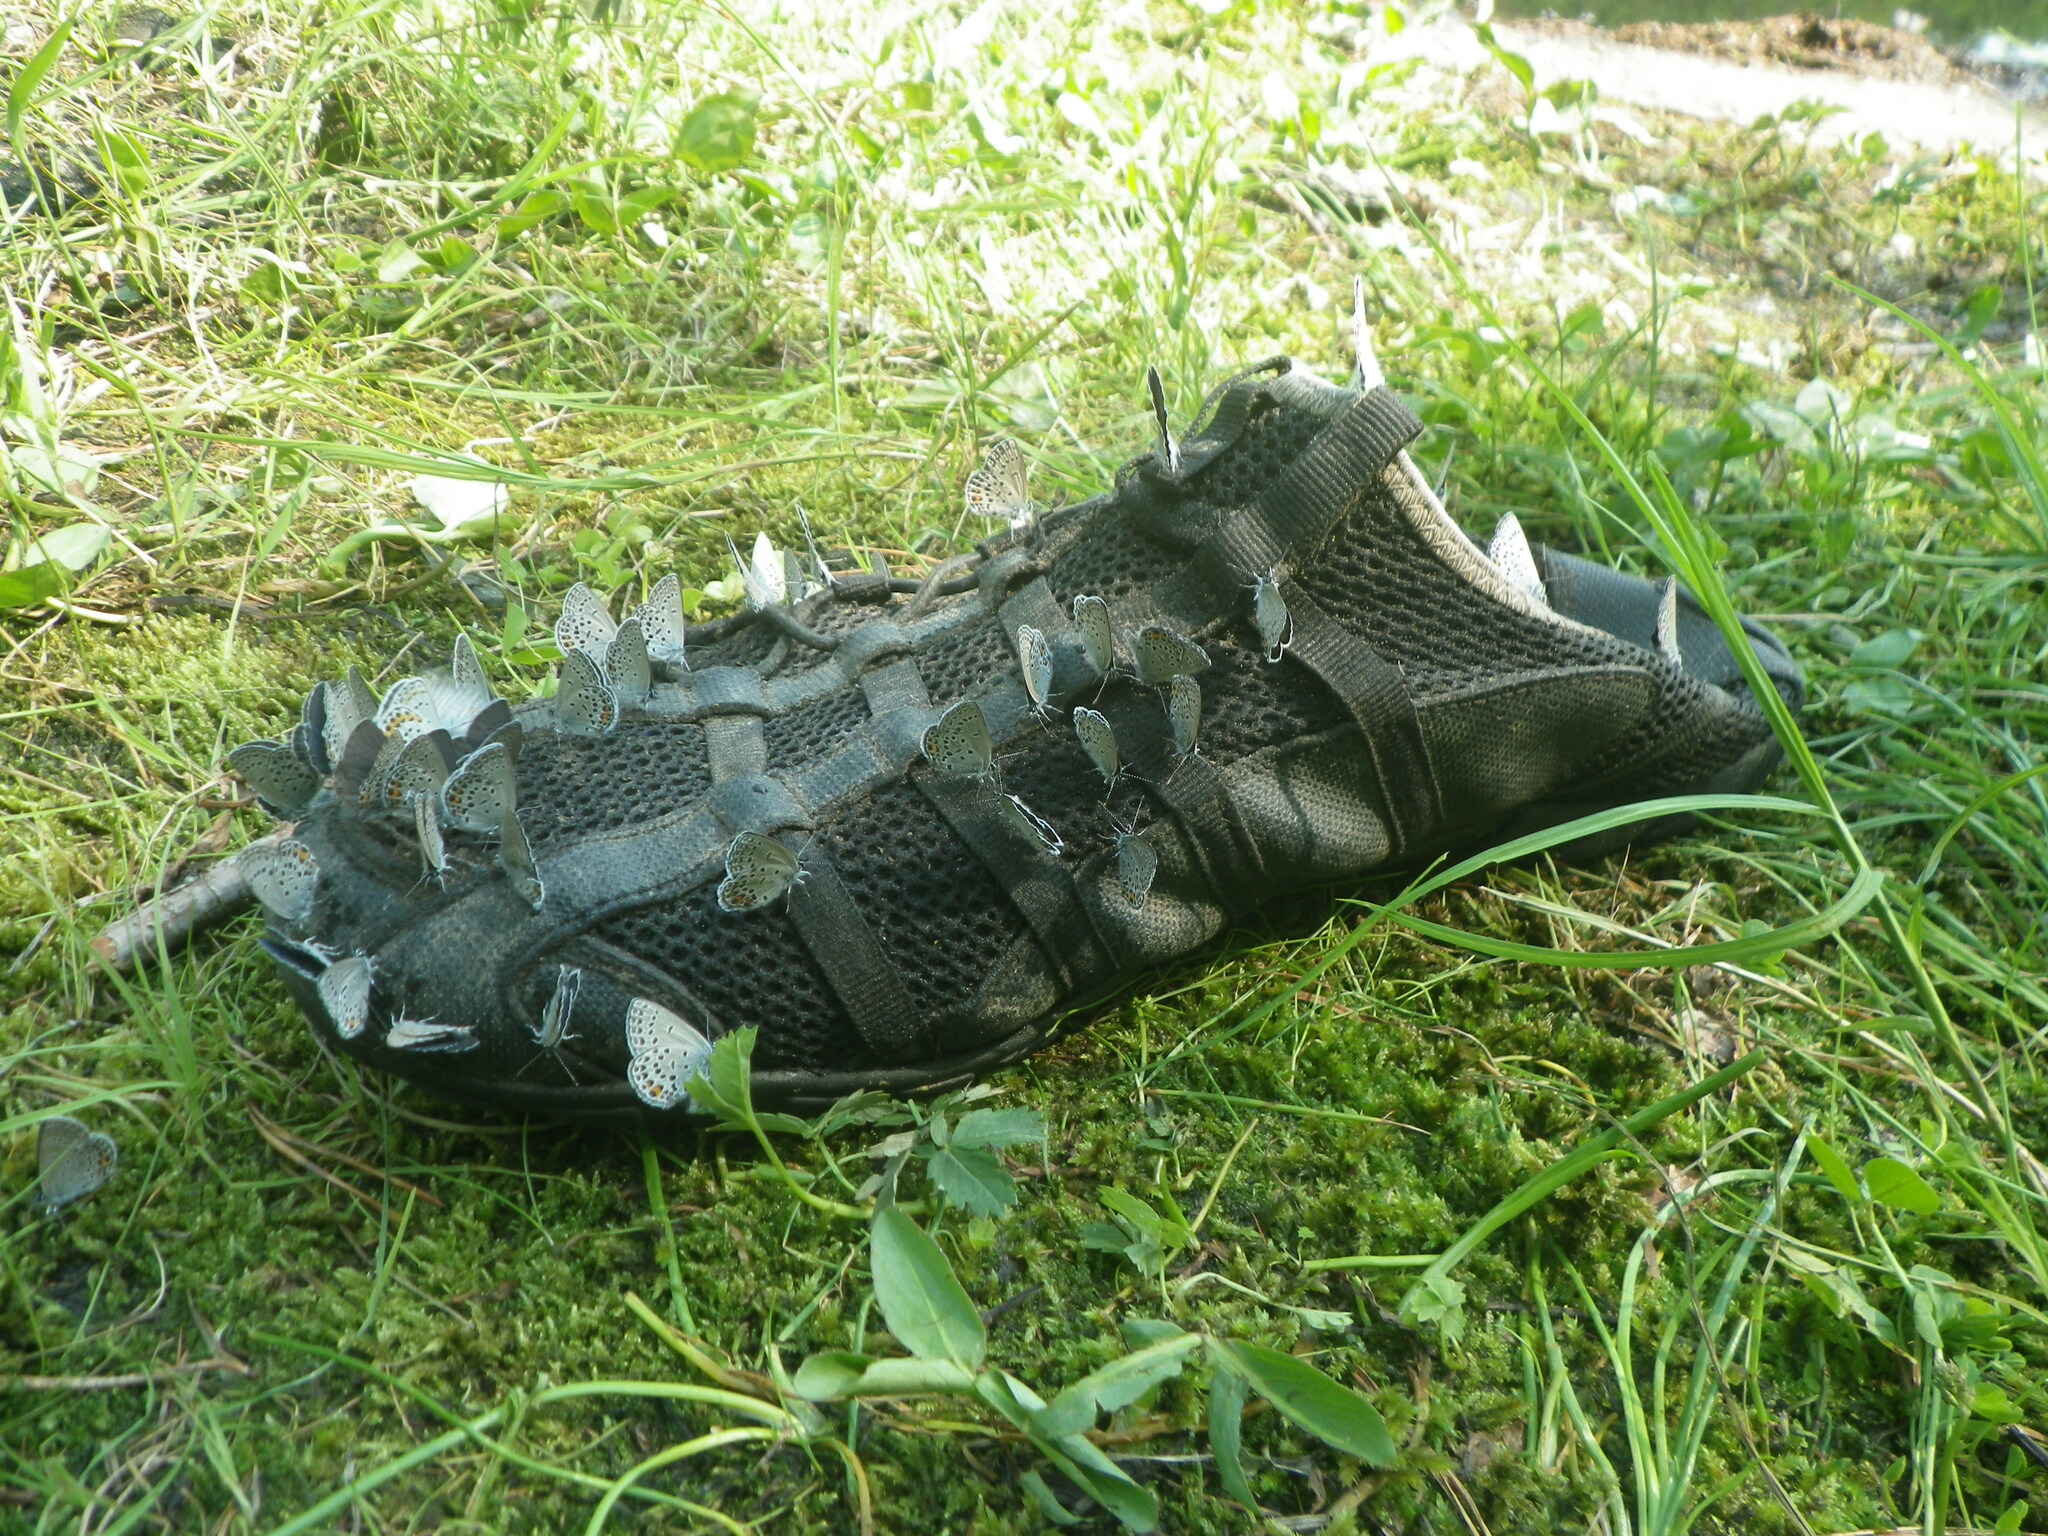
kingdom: Animalia
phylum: Arthropoda
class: Insecta
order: Lepidoptera
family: Lycaenidae
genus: Vacciniina
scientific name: Vacciniina optilete
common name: Cranberry blue
